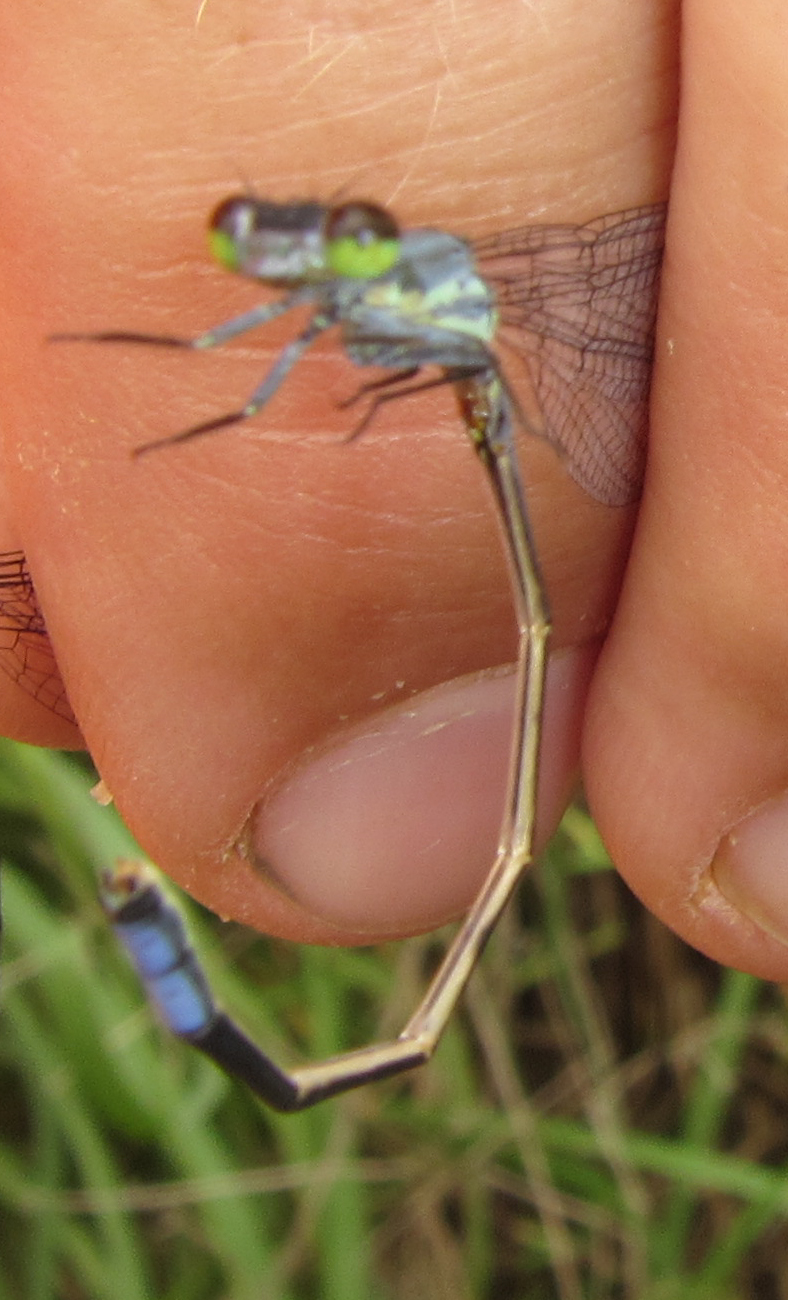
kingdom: Animalia
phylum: Arthropoda
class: Insecta
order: Odonata
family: Coenagrionidae
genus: Pseudagrion
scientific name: Pseudagrion salisburyense
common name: Slate sprite
